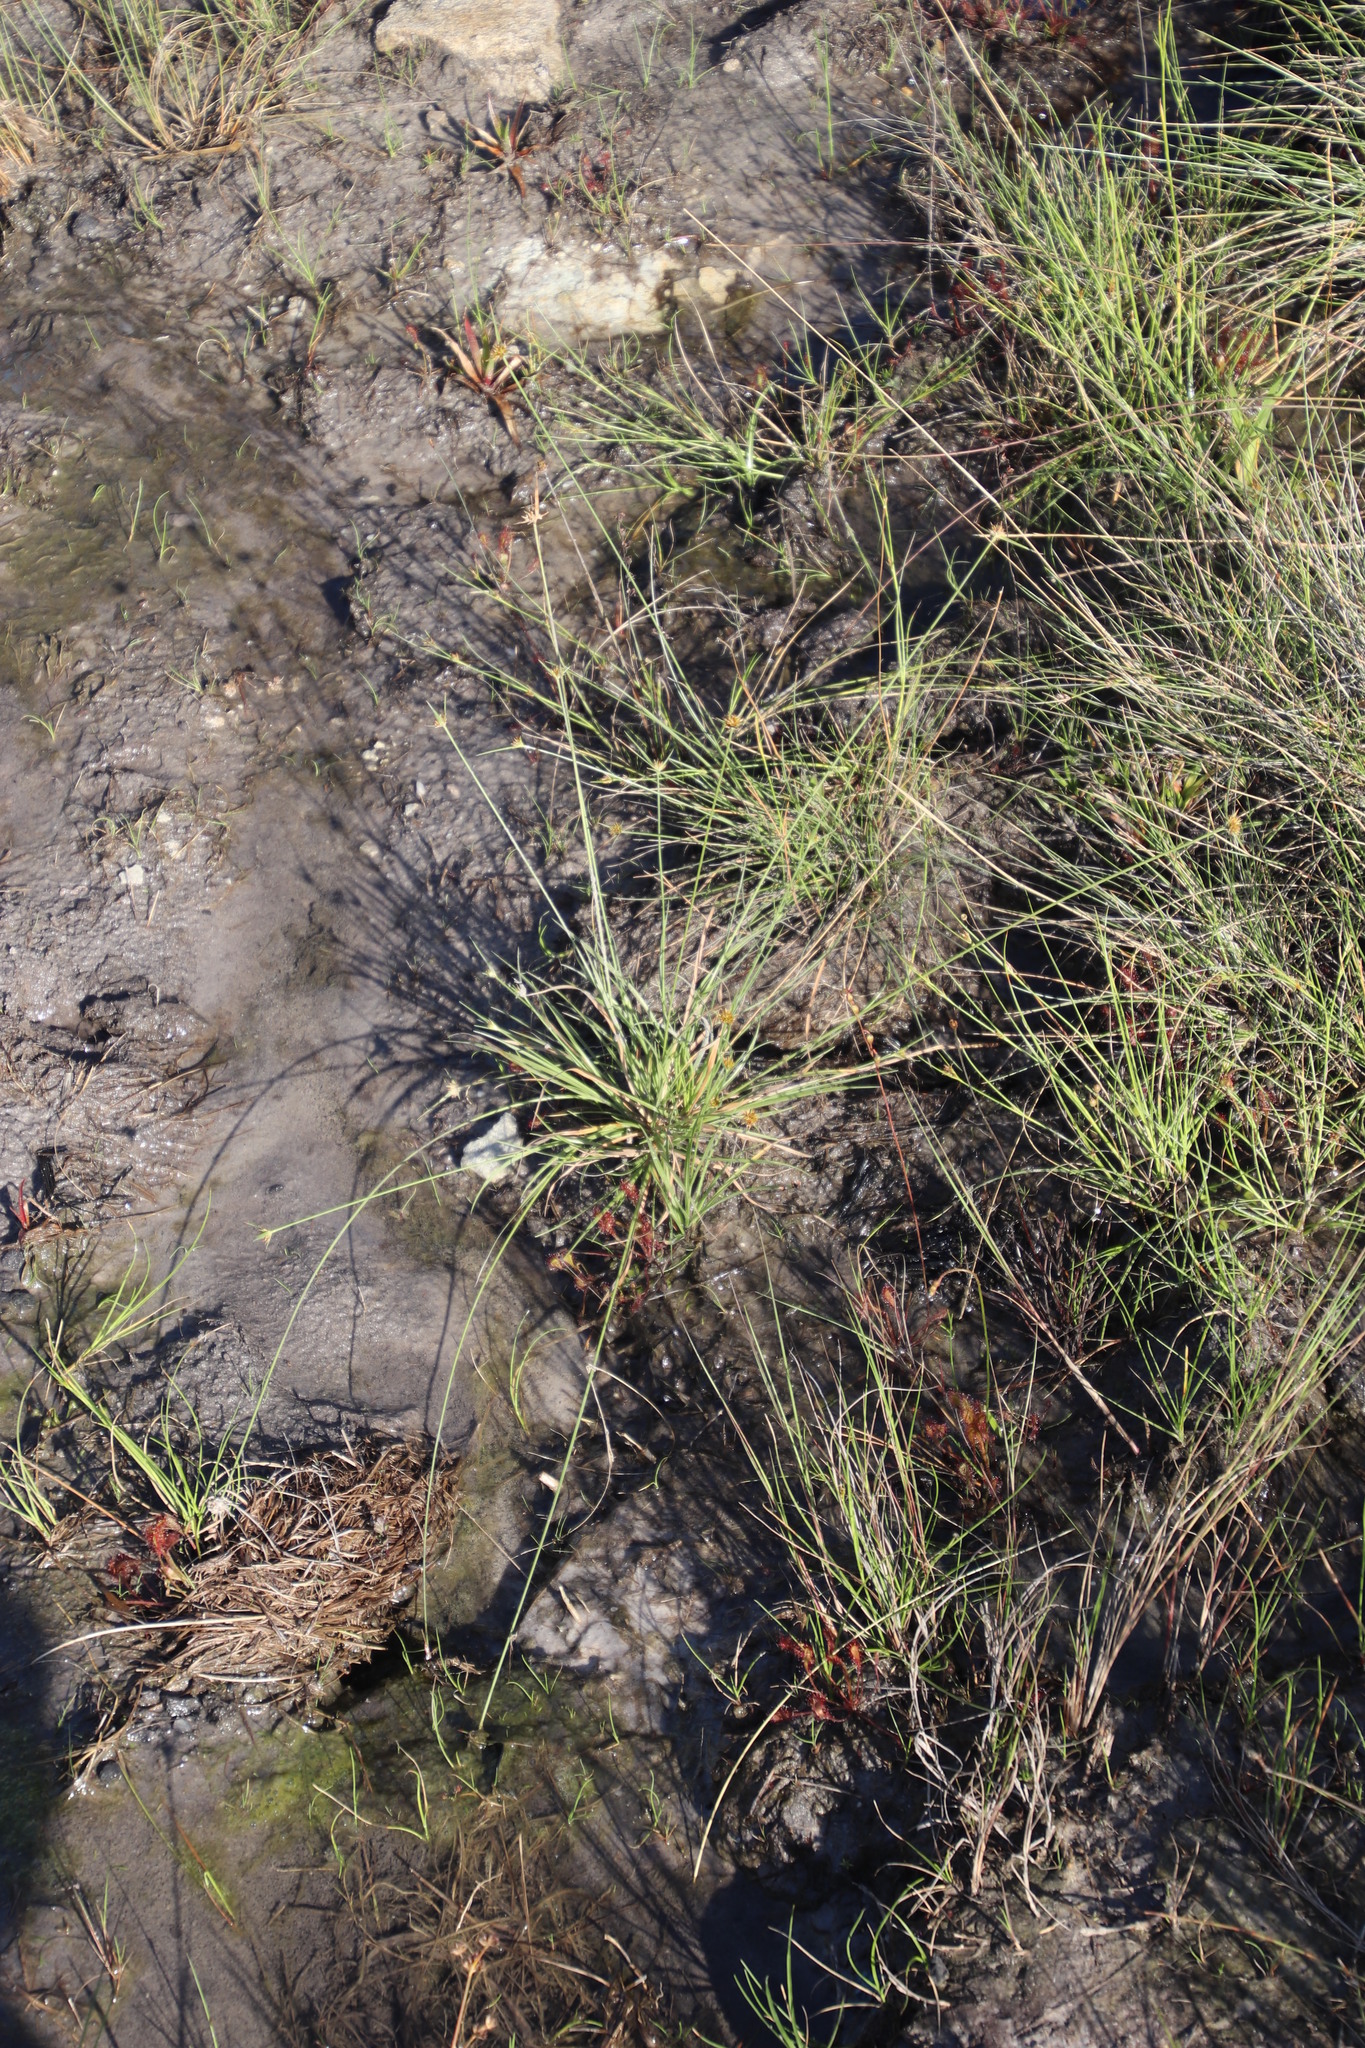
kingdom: Plantae
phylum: Tracheophyta
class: Liliopsida
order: Poales
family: Cyperaceae
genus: Rhynchospora
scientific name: Rhynchospora rubra
